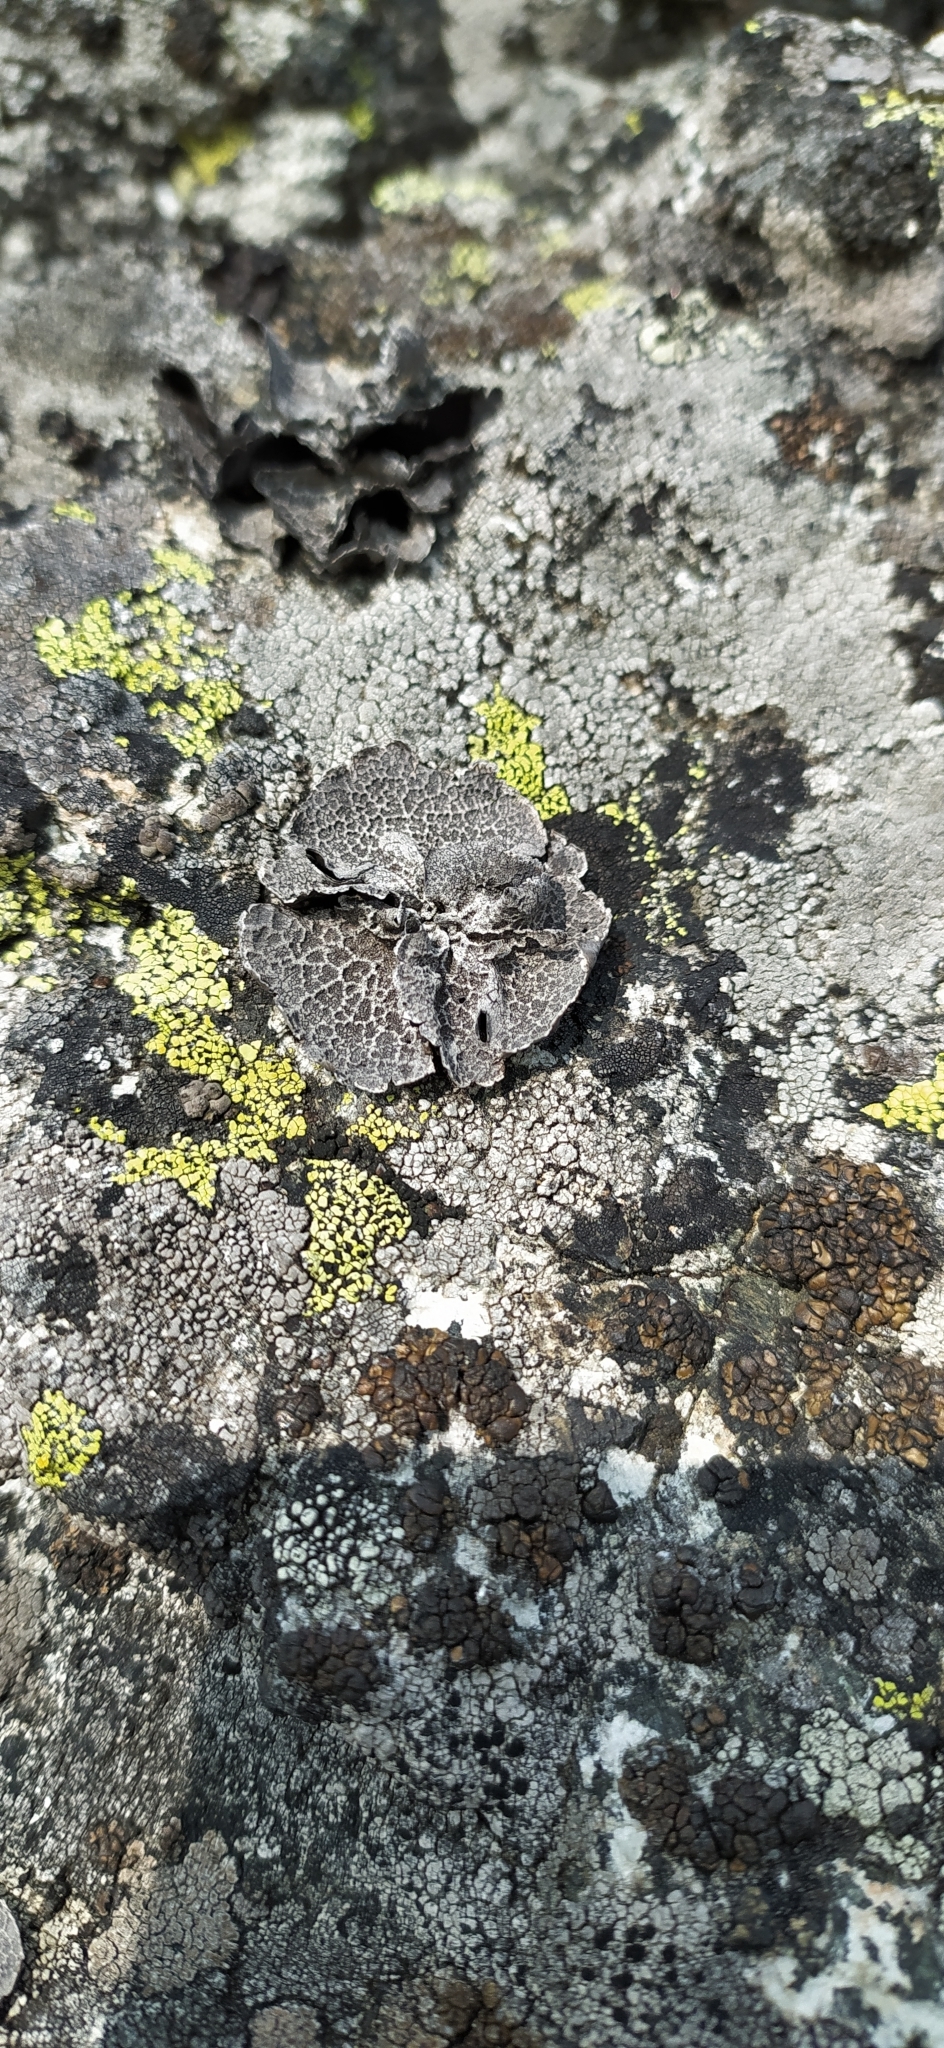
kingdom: Fungi
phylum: Ascomycota
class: Lecanoromycetes
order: Umbilicariales
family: Umbilicariaceae
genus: Umbilicaria
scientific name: Umbilicaria decussata
